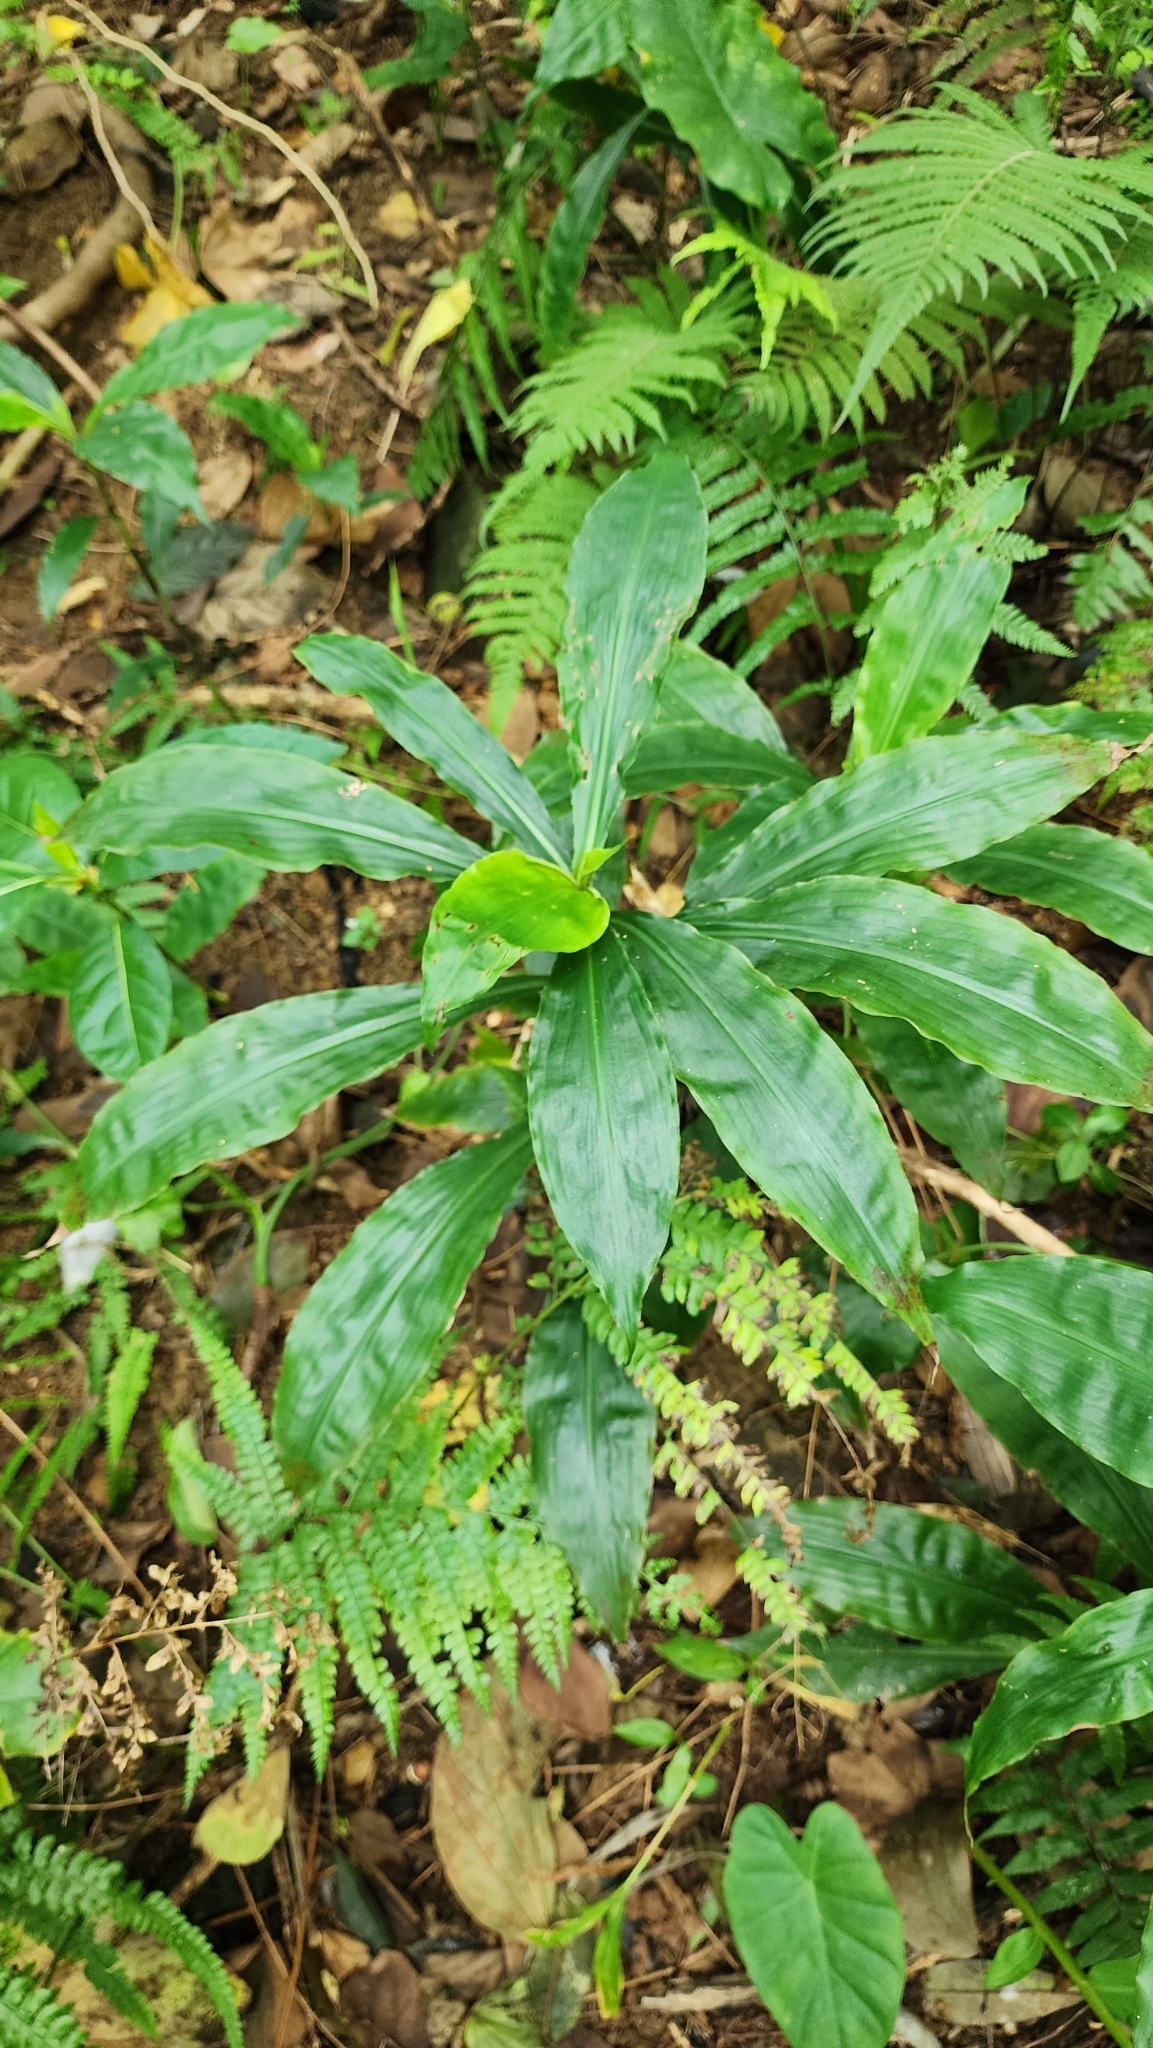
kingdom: Plantae
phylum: Tracheophyta
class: Liliopsida
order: Commelinales
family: Commelinaceae
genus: Amischotolype
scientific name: Amischotolype glabrata
